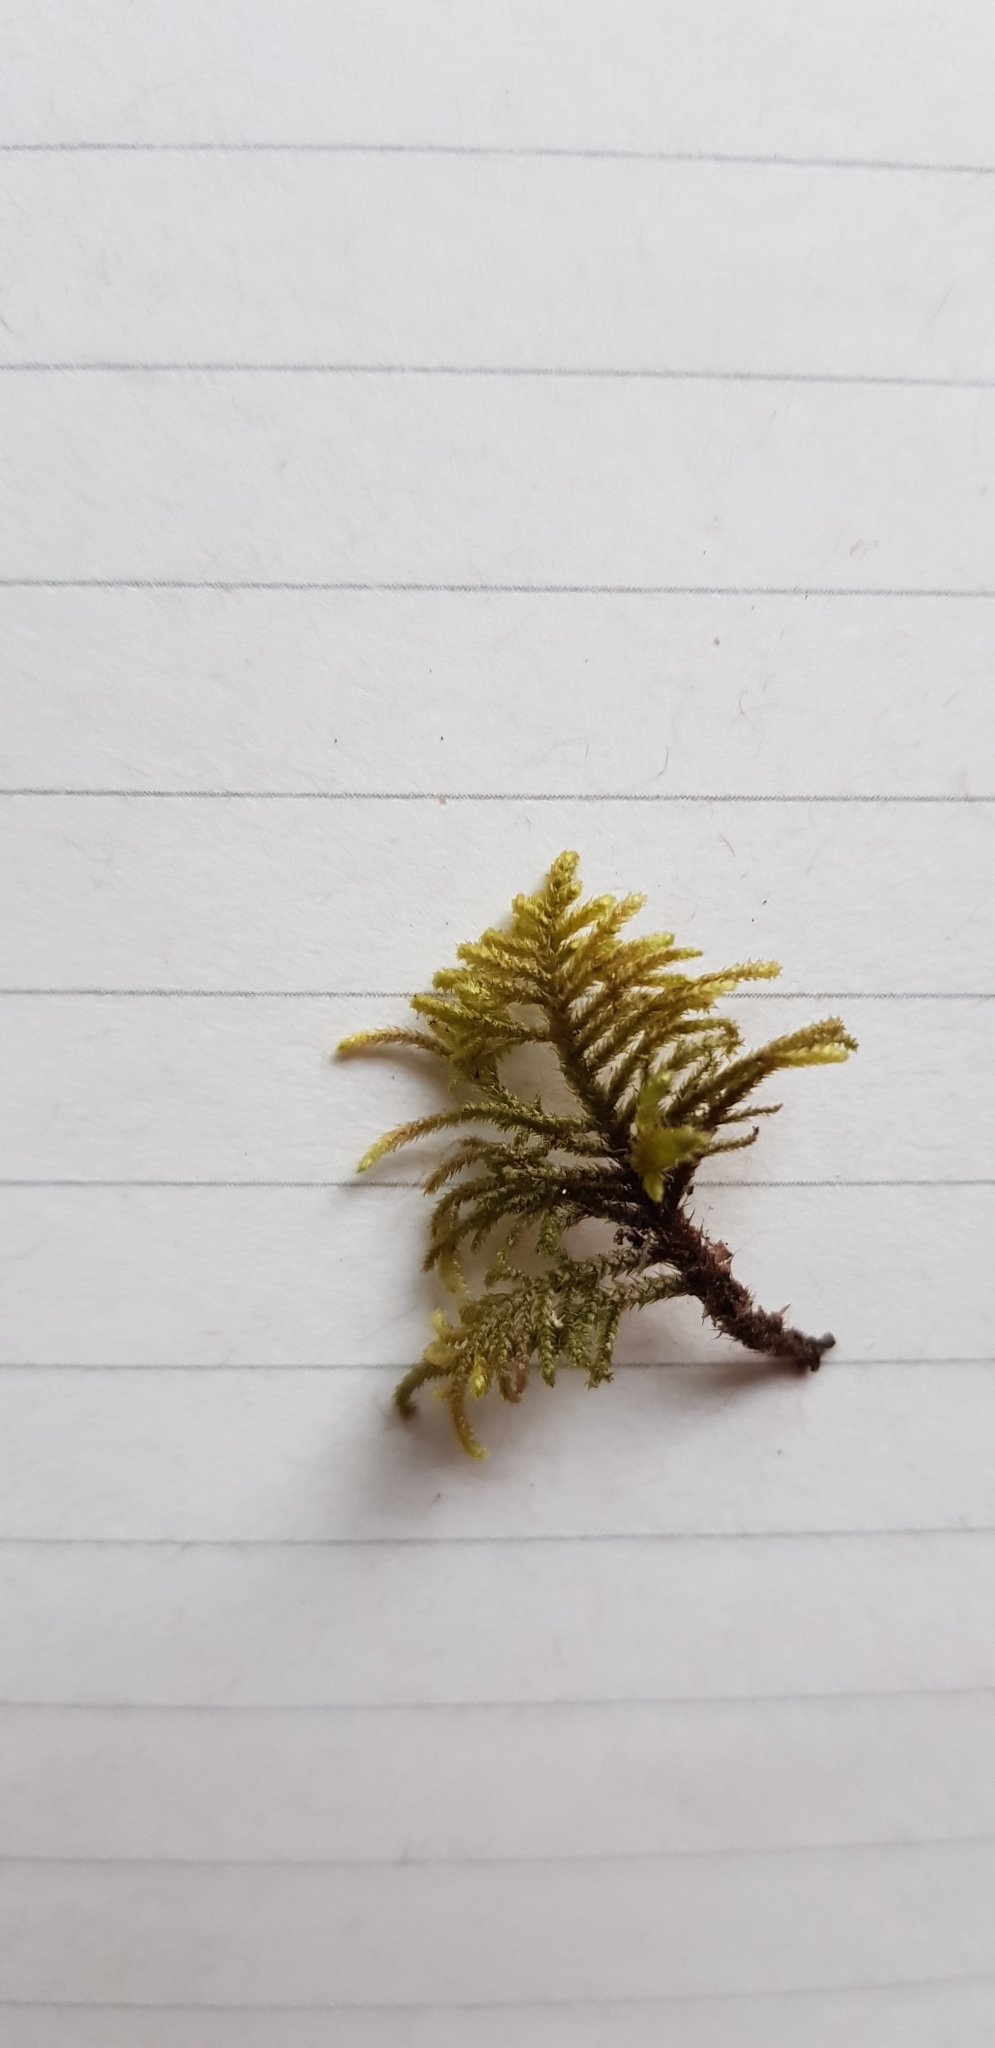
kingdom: Plantae
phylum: Bryophyta
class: Bryopsida
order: Hypnales
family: Myuriaceae
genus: Hyocomium
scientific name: Hyocomium armoricum
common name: Flagellate feather-moss
